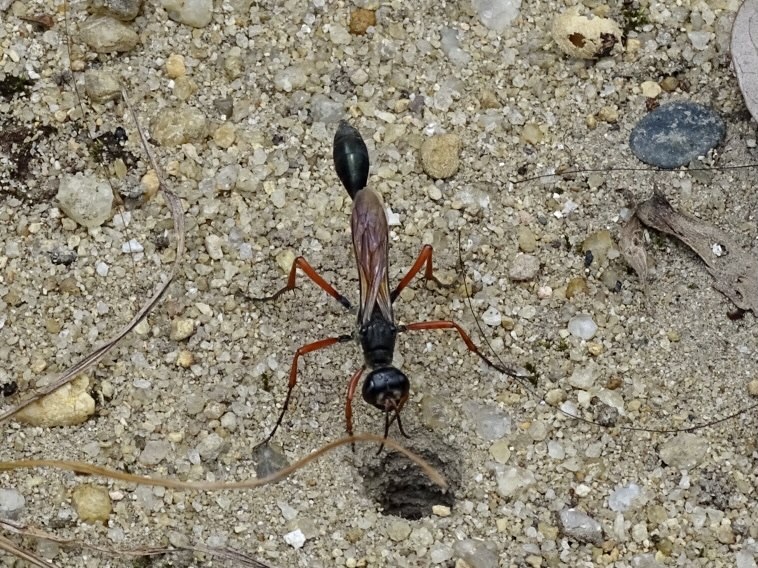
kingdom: Animalia
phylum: Arthropoda
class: Insecta
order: Hymenoptera
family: Sphecidae
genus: Ammophila
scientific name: Ammophila clavus
